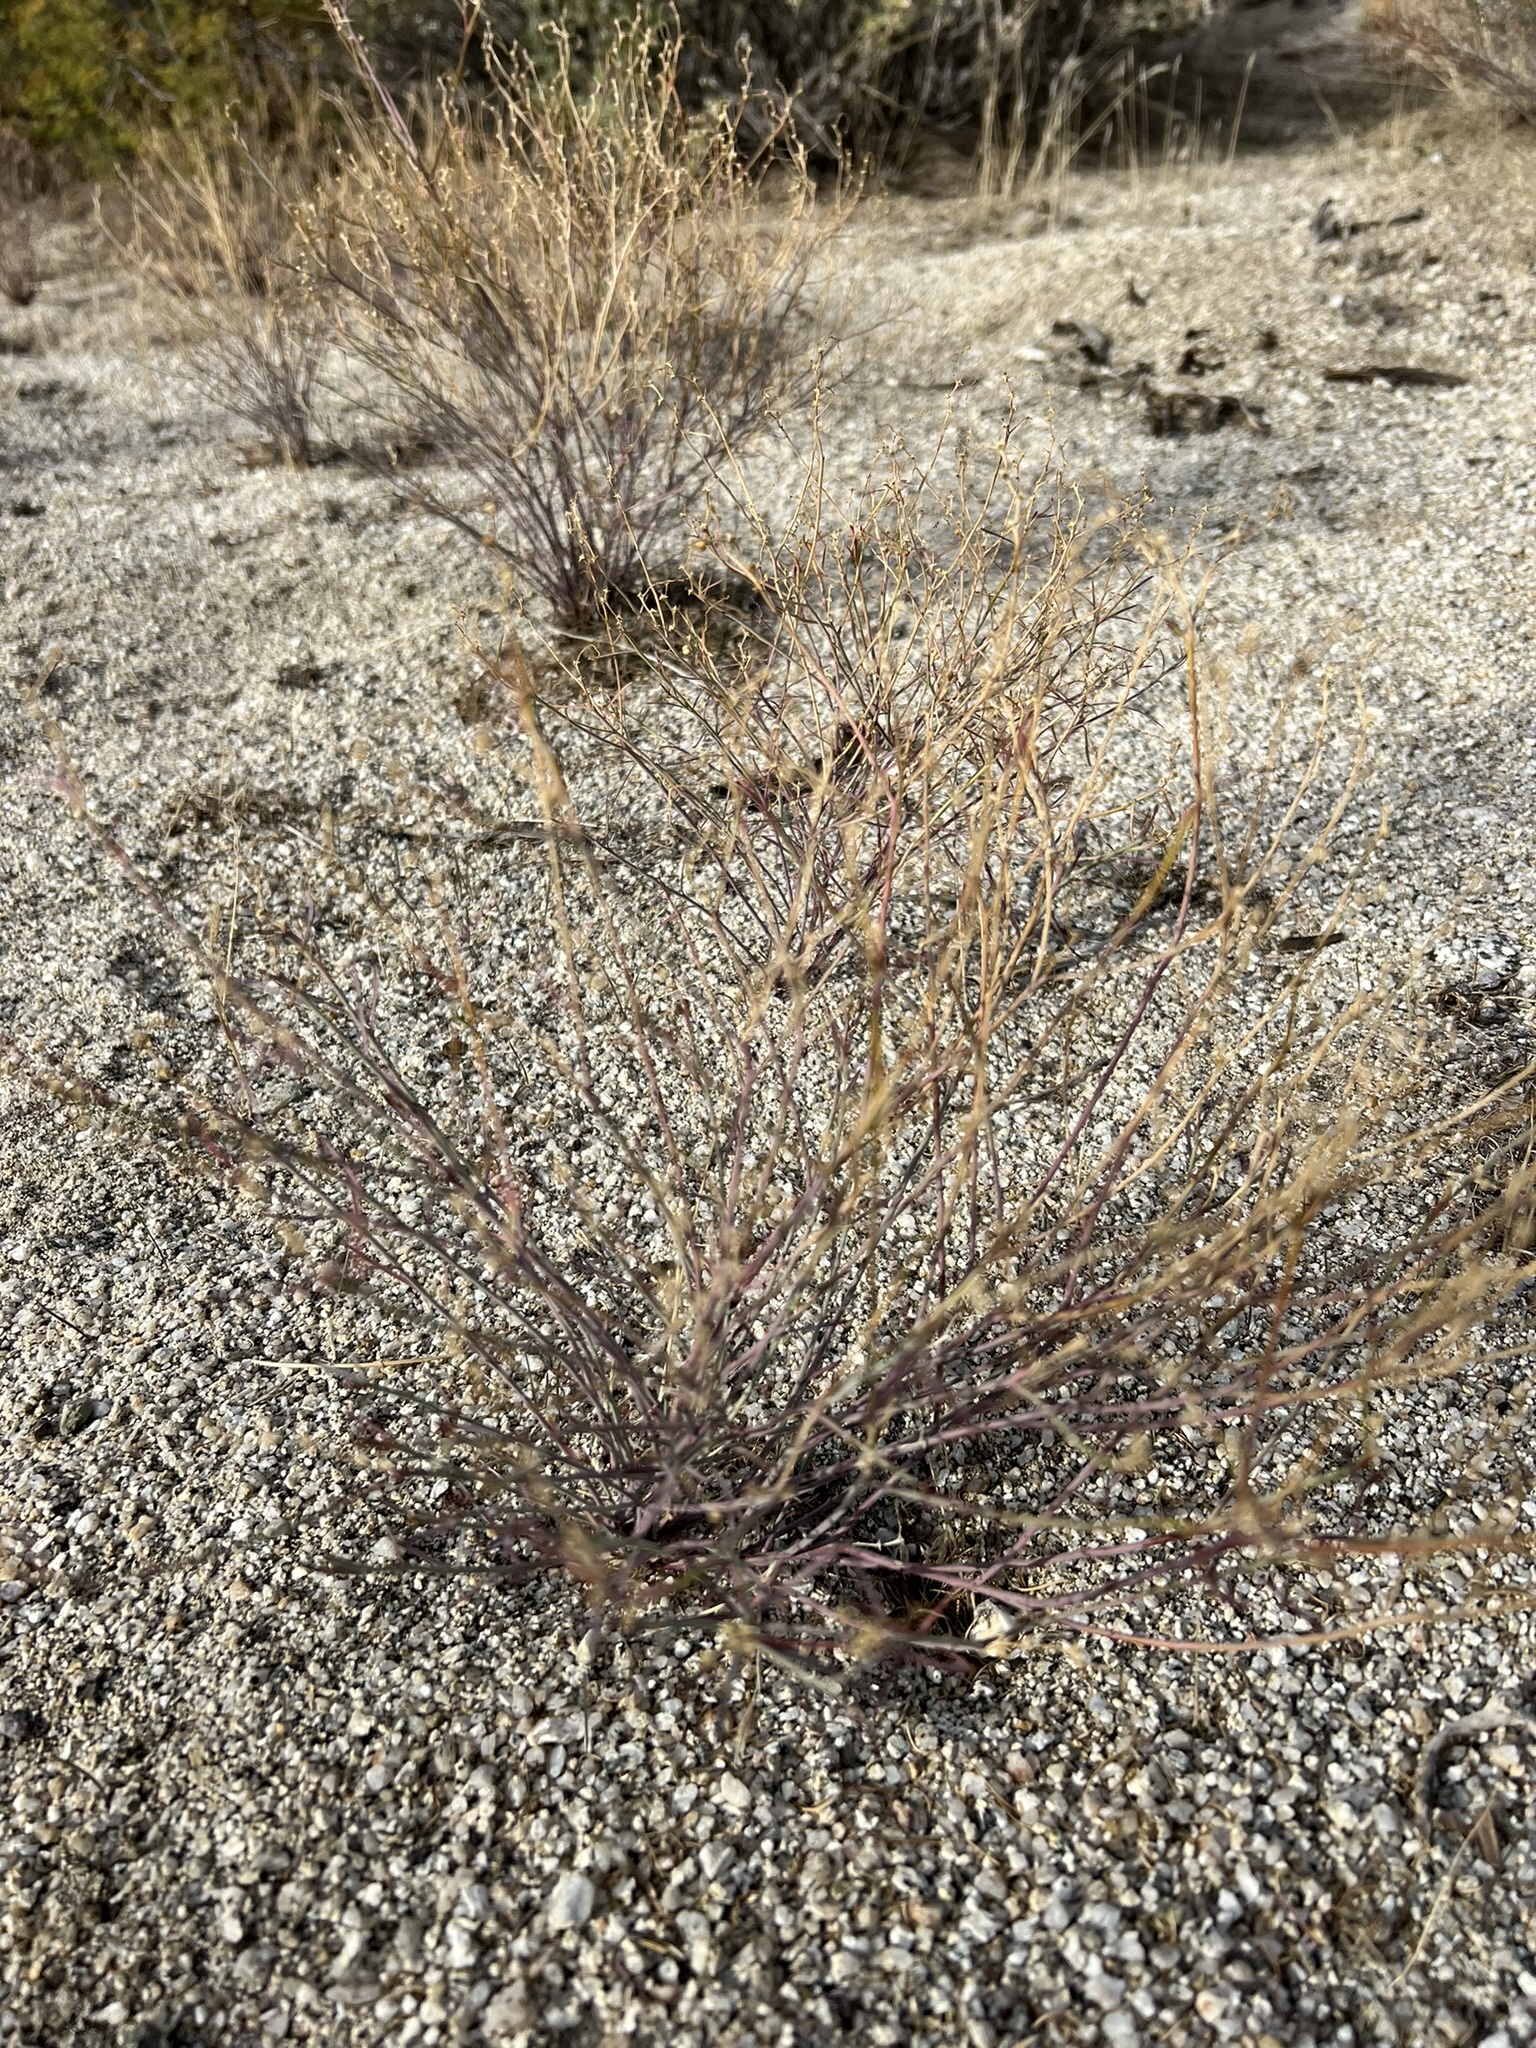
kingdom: Plantae
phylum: Tracheophyta
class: Magnoliopsida
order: Malpighiales
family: Euphorbiaceae
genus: Stillingia
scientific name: Stillingia linearifolia
